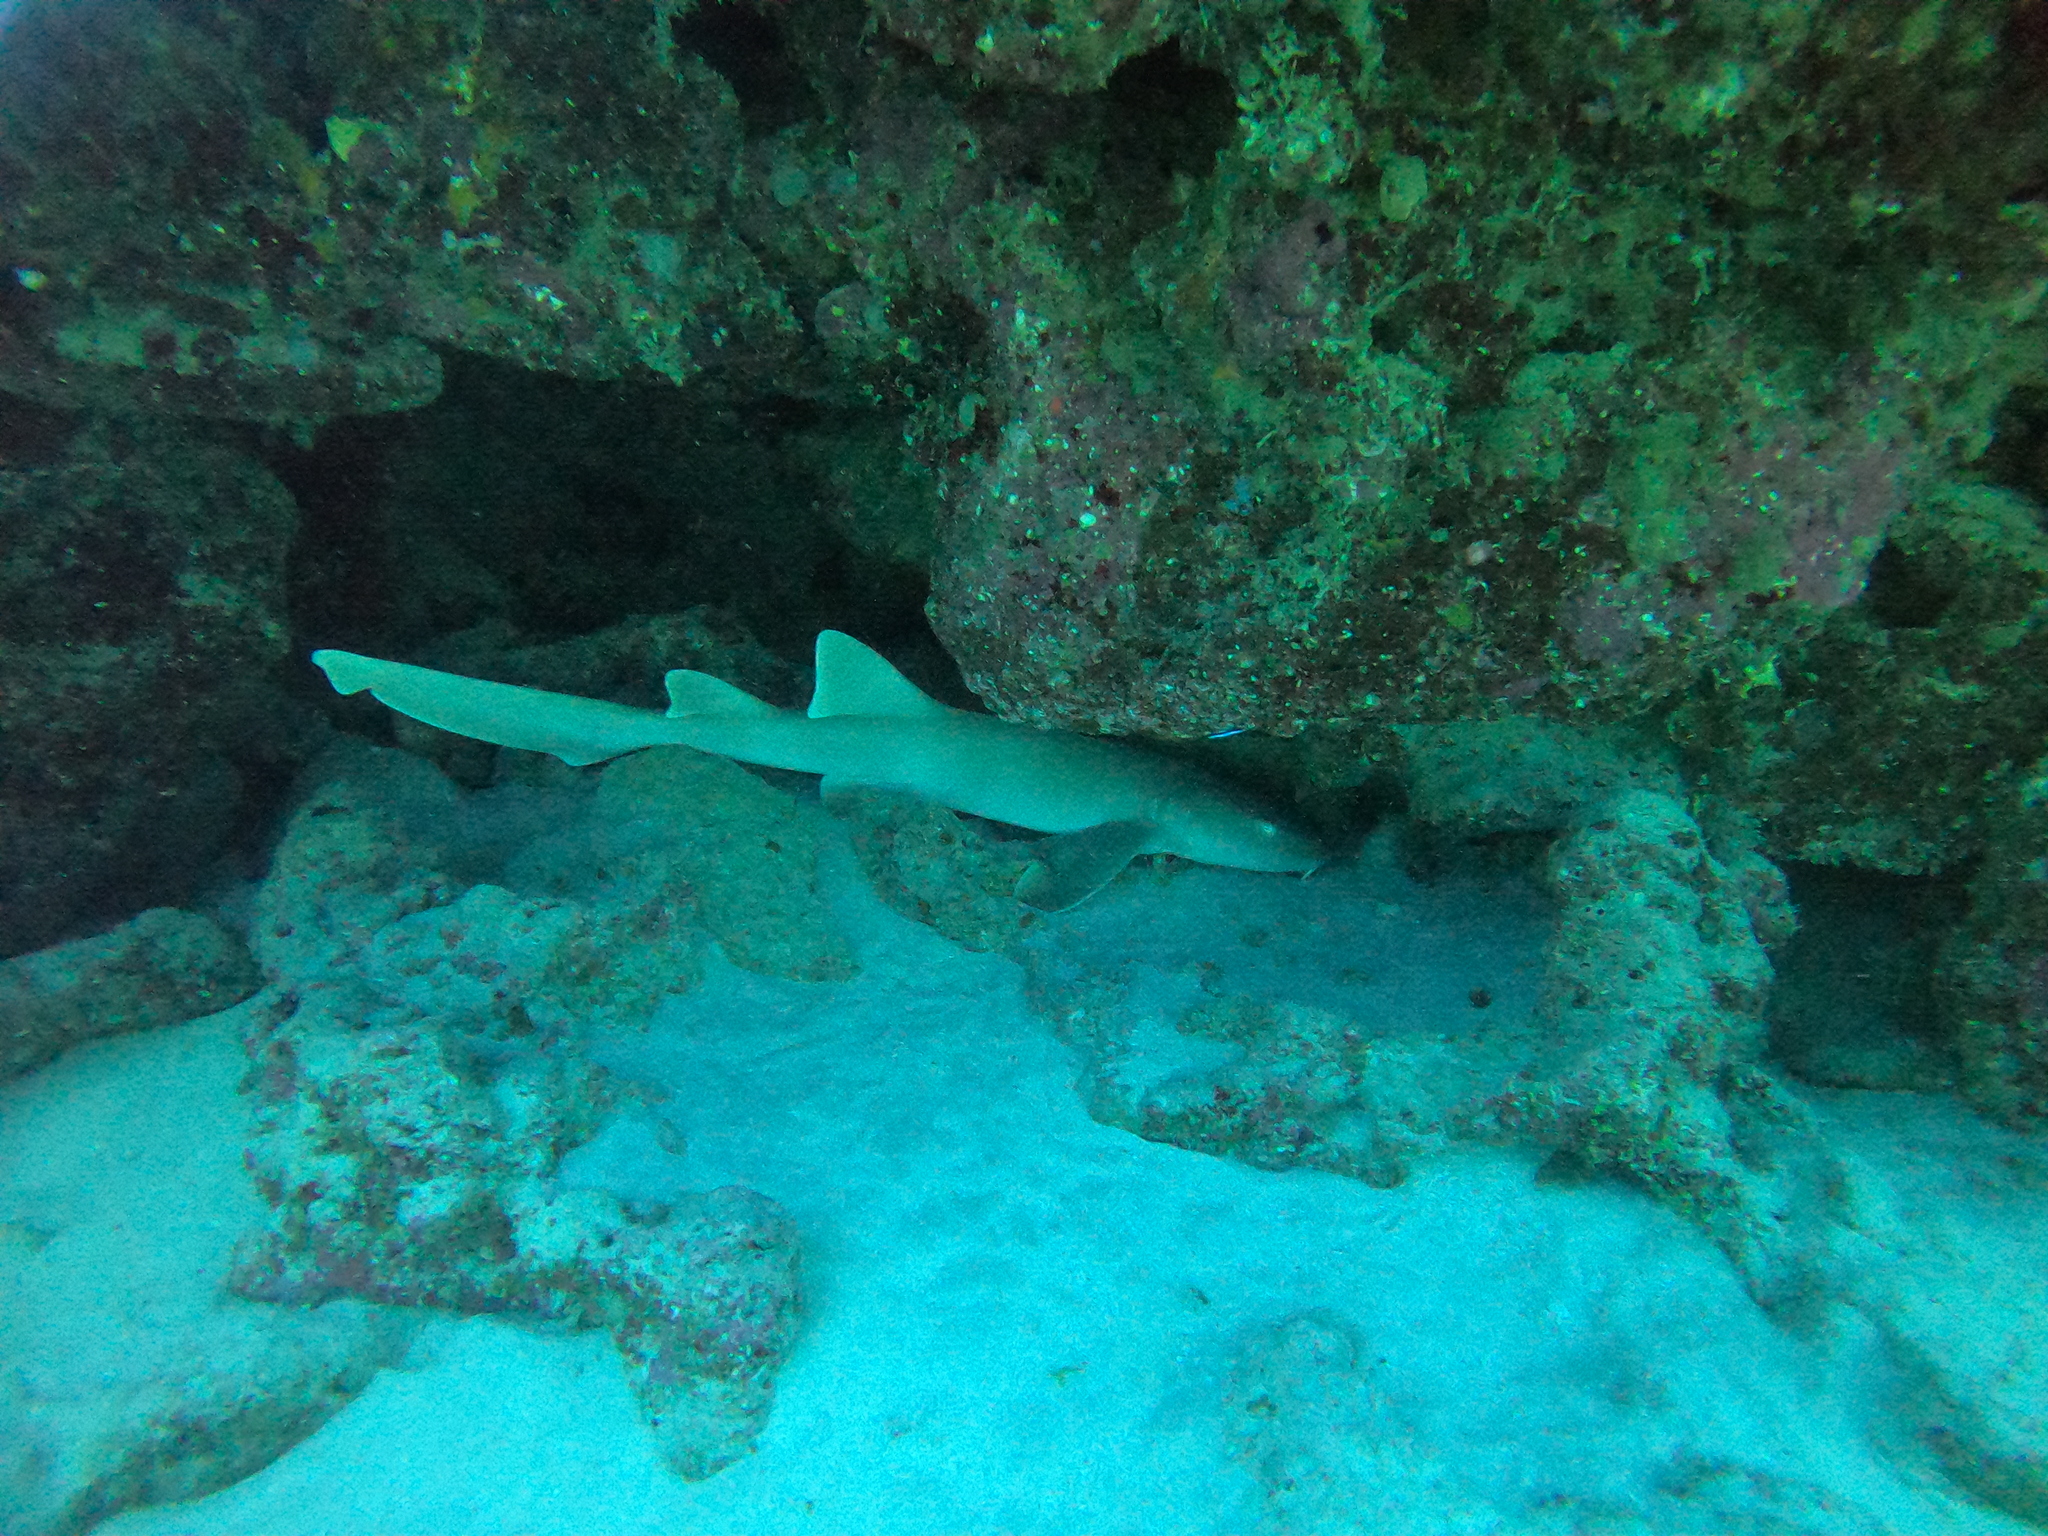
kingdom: Animalia
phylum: Chordata
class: Elasmobranchii
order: Orectolobiformes
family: Ginglymostomatidae
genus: Ginglymostoma
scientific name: Ginglymostoma cirratum
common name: Nurse shark
